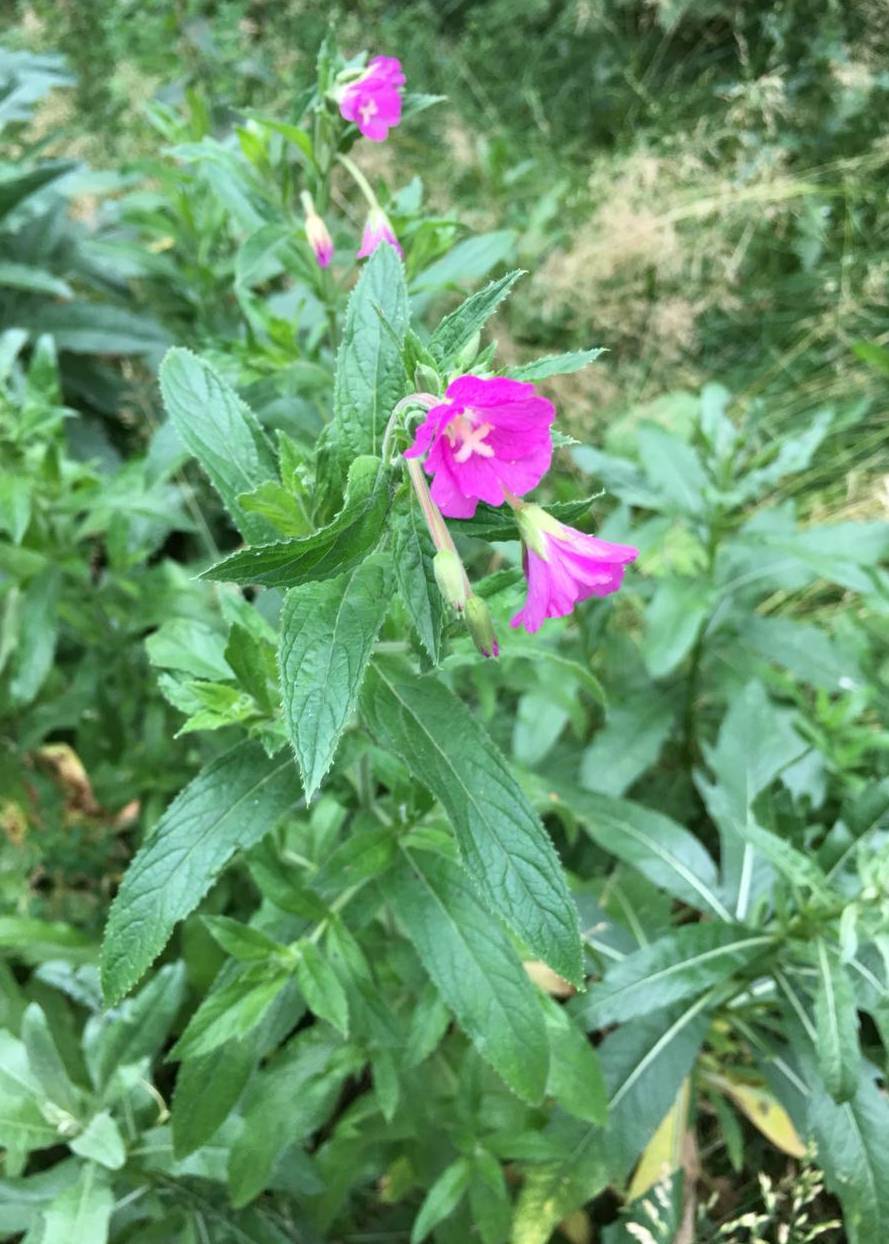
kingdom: Plantae
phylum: Tracheophyta
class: Magnoliopsida
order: Myrtales
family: Onagraceae
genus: Epilobium
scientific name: Epilobium hirsutum
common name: Great willowherb
